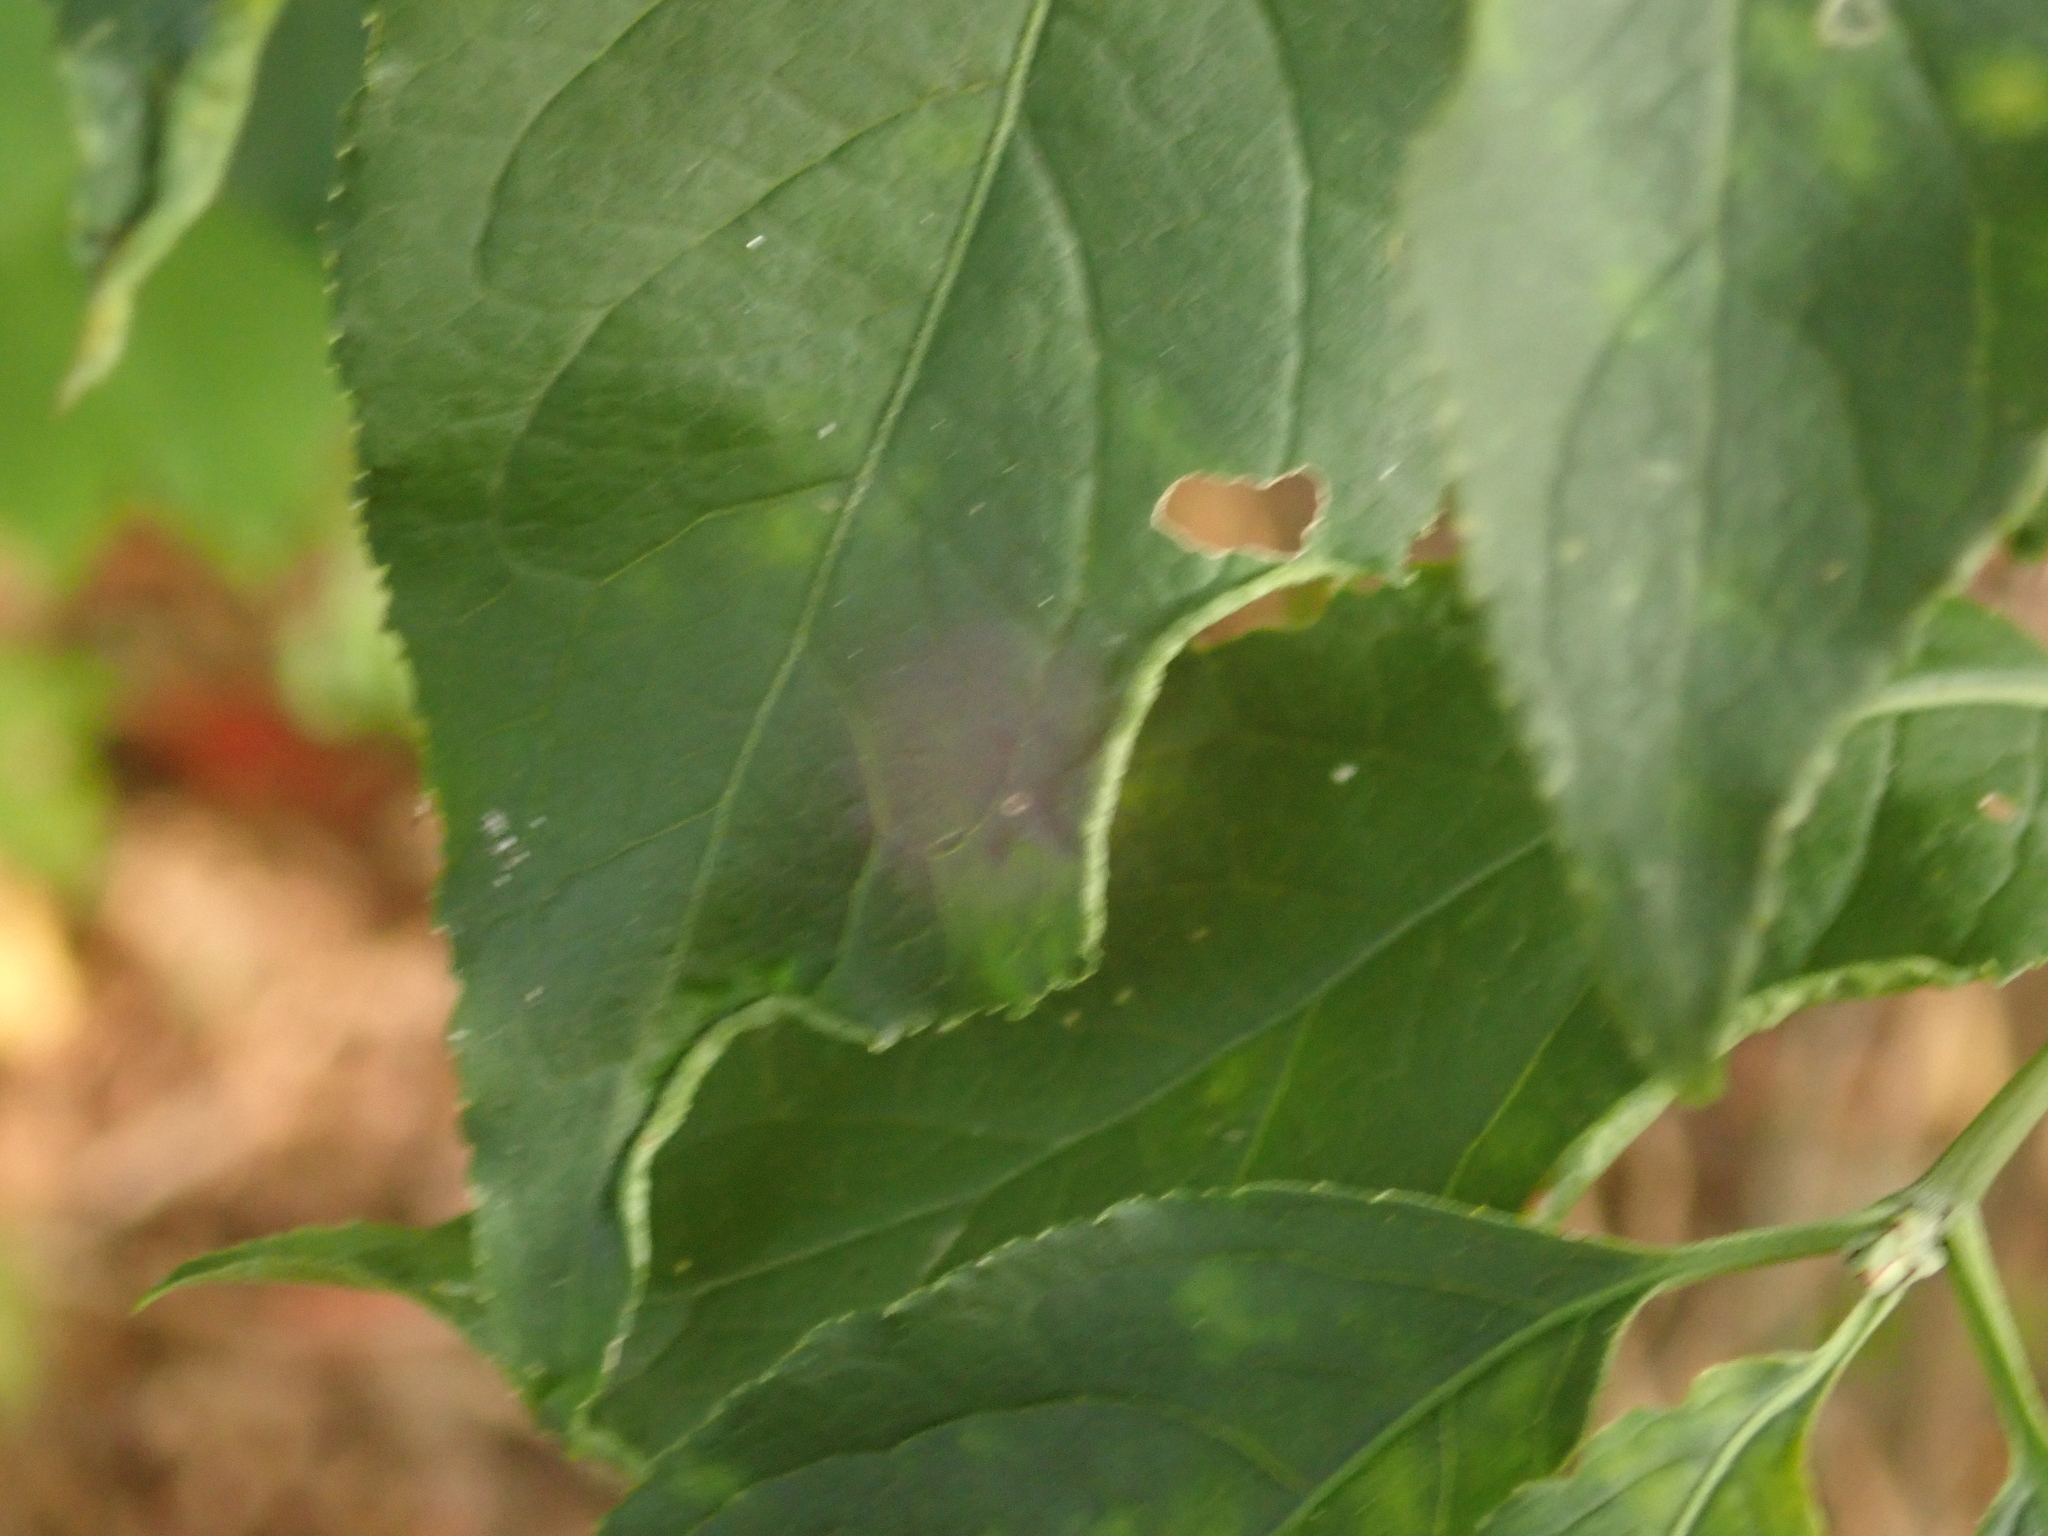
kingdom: Animalia
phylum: Arthropoda
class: Arachnida
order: Trombidiformes
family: Eriophyidae
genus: Stenacis
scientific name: Stenacis evonymi
